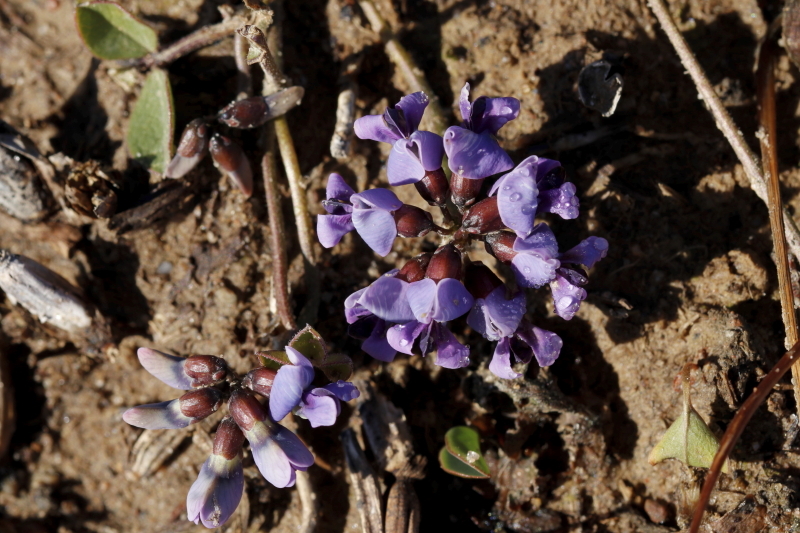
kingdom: Plantae
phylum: Tracheophyta
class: Magnoliopsida
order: Fabales
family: Fabaceae
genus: Dolichos
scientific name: Dolichos decumbens
